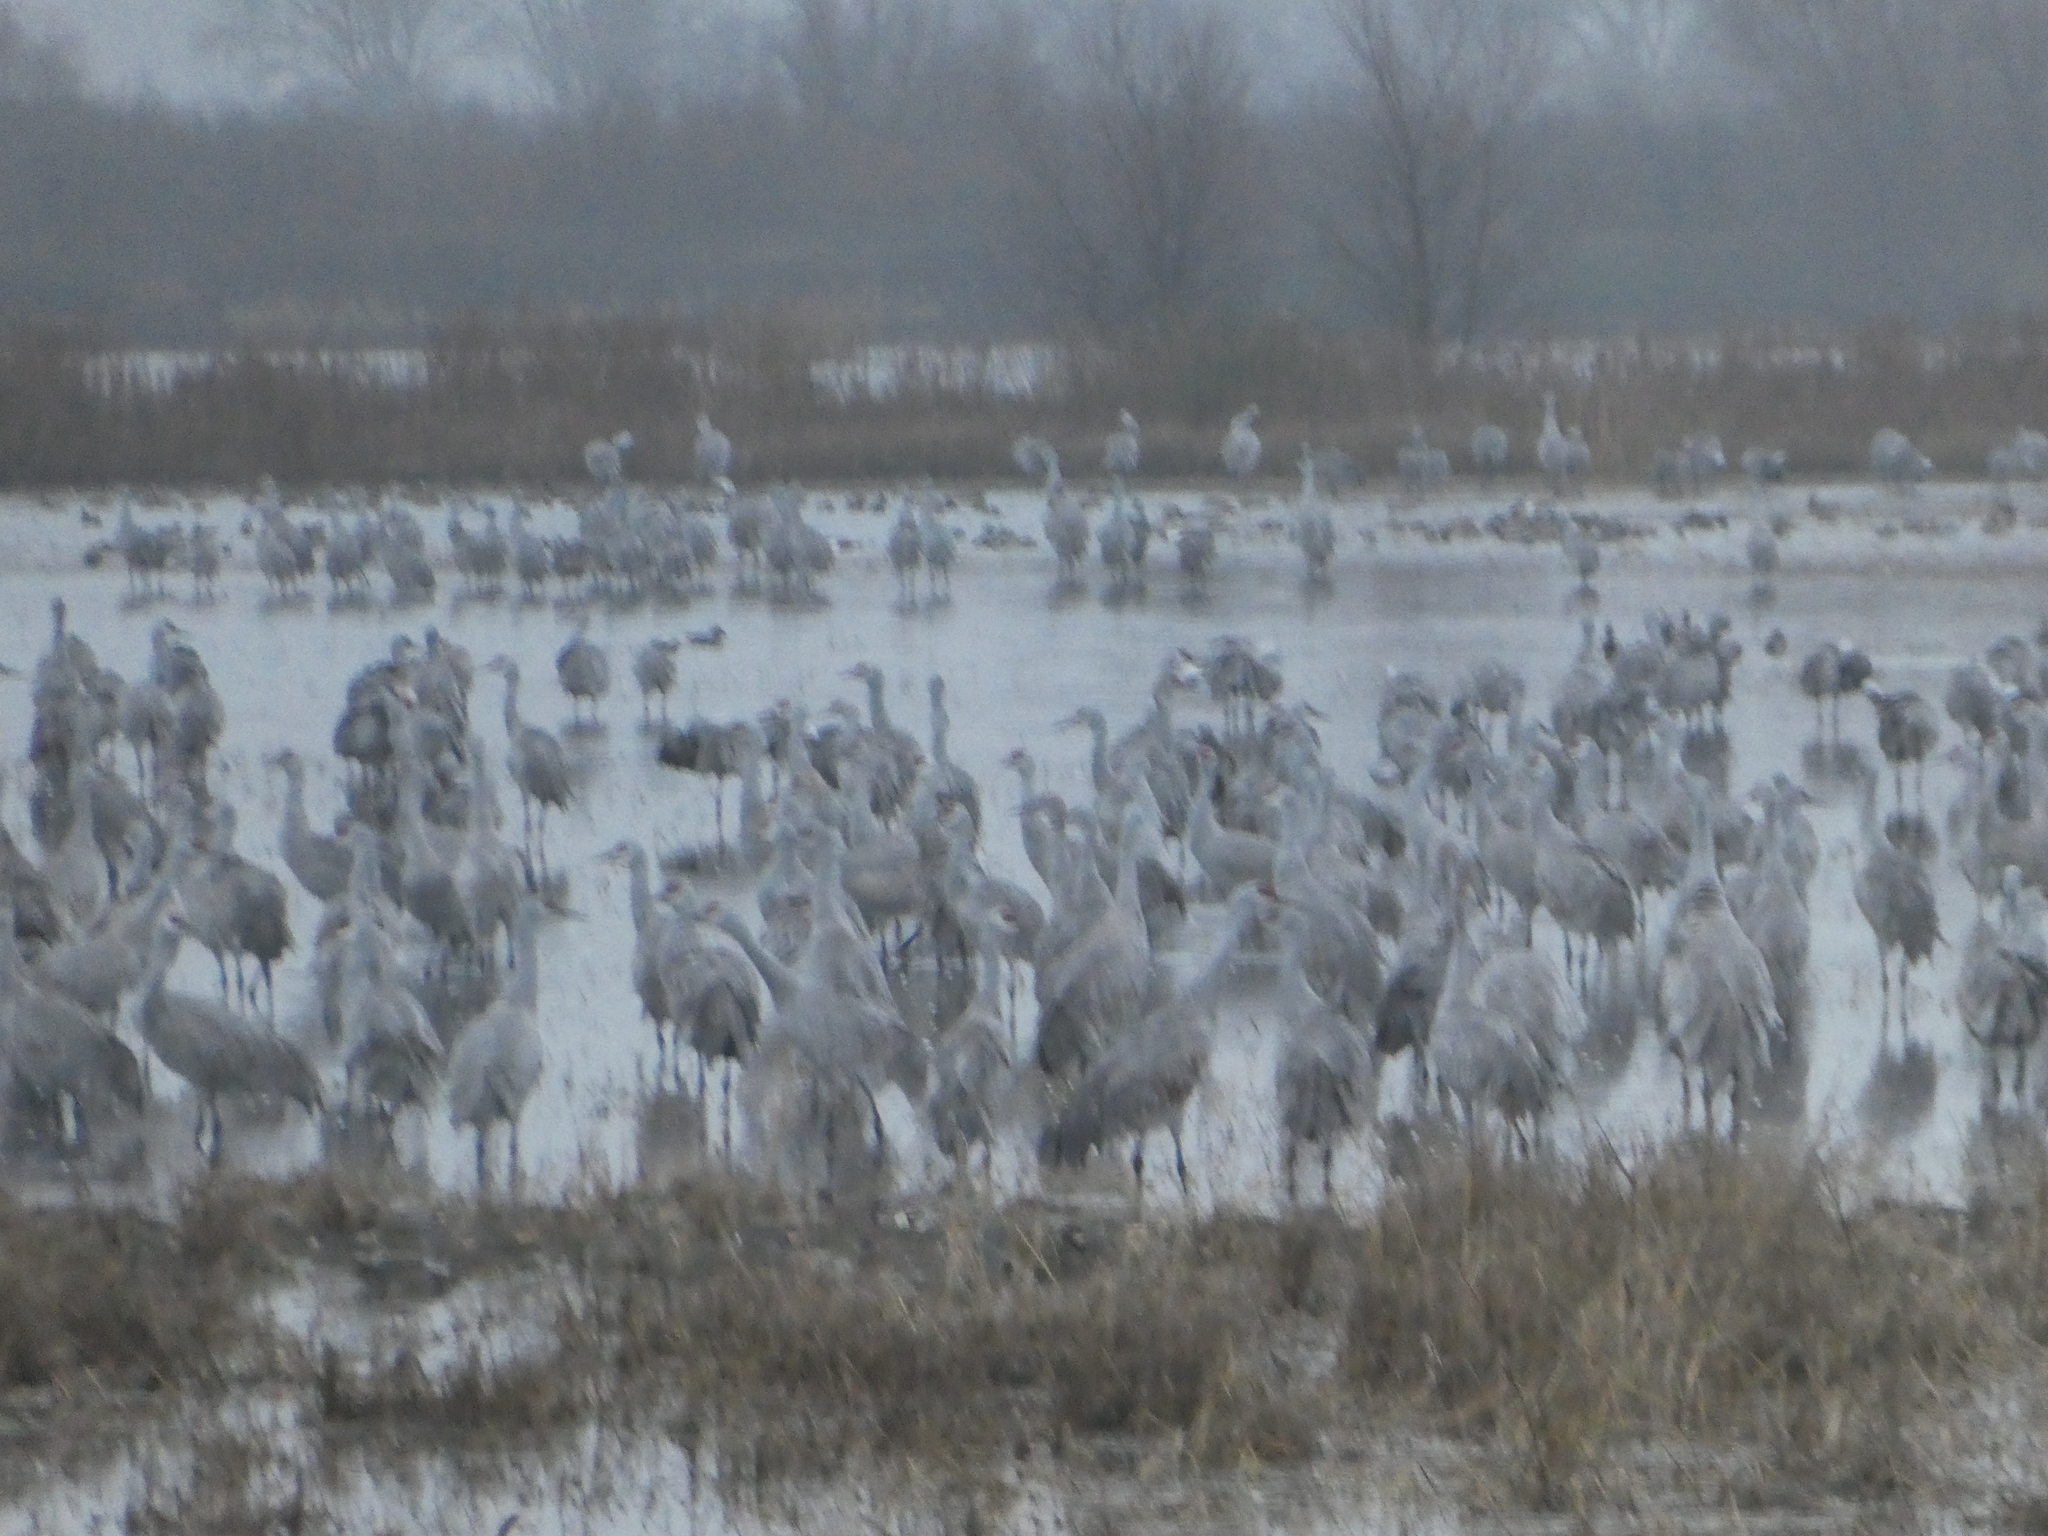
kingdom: Animalia
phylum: Chordata
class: Aves
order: Gruiformes
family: Gruidae
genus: Grus
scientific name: Grus canadensis
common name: Sandhill crane
